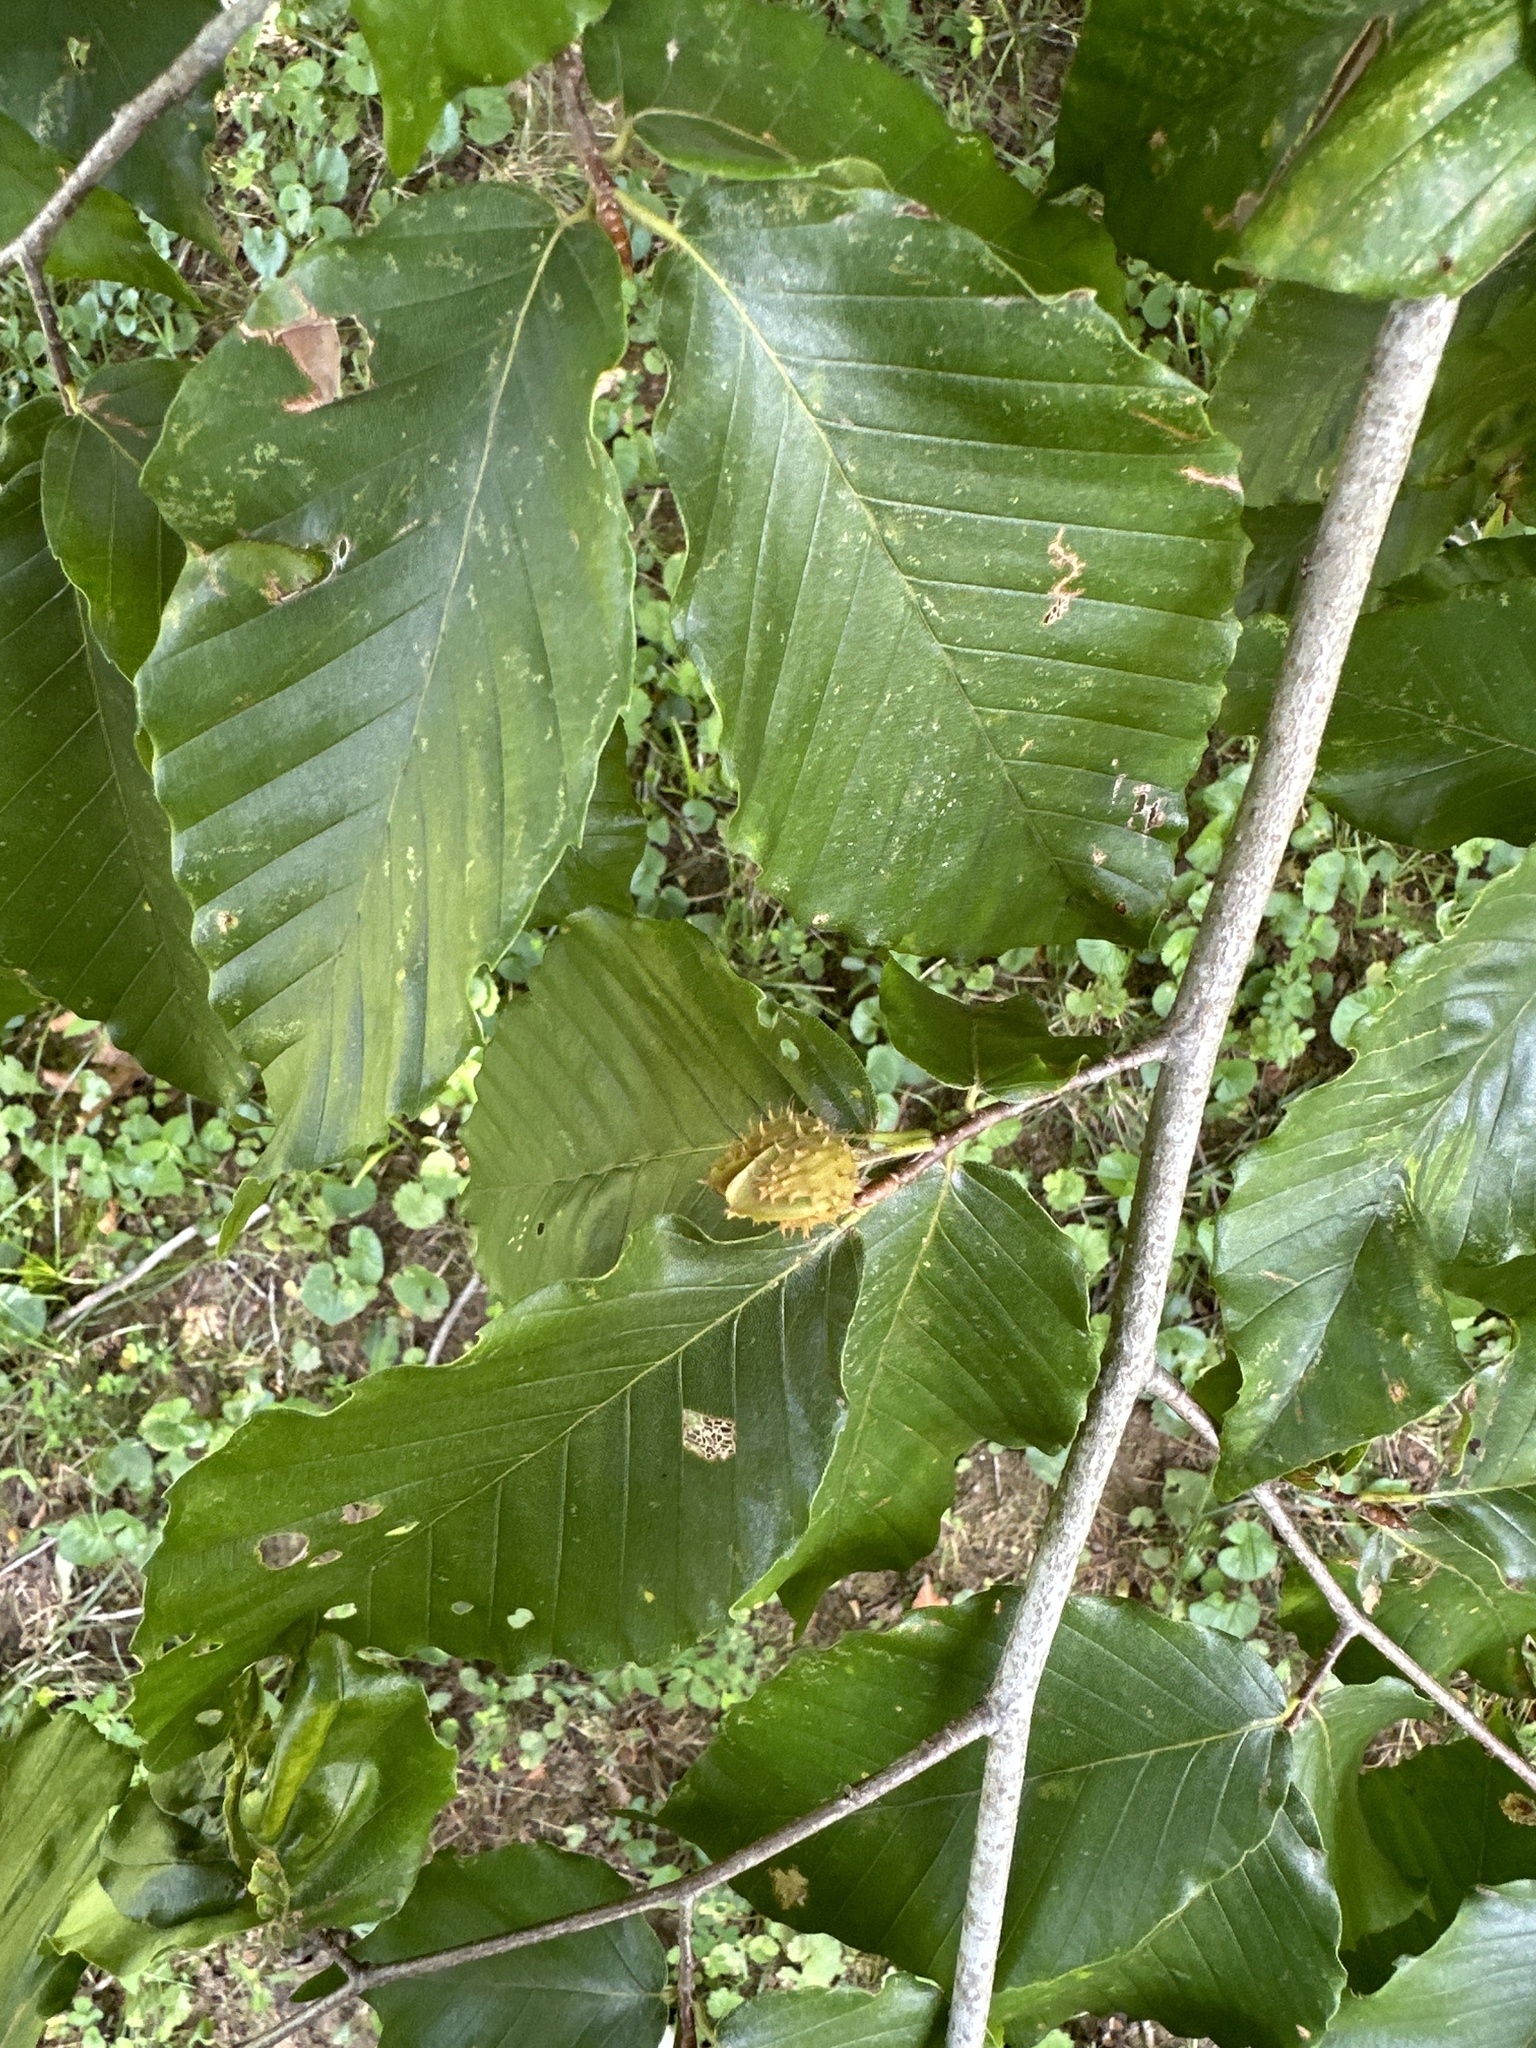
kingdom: Plantae
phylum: Tracheophyta
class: Magnoliopsida
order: Fagales
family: Fagaceae
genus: Fagus
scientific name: Fagus grandifolia
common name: American beech
